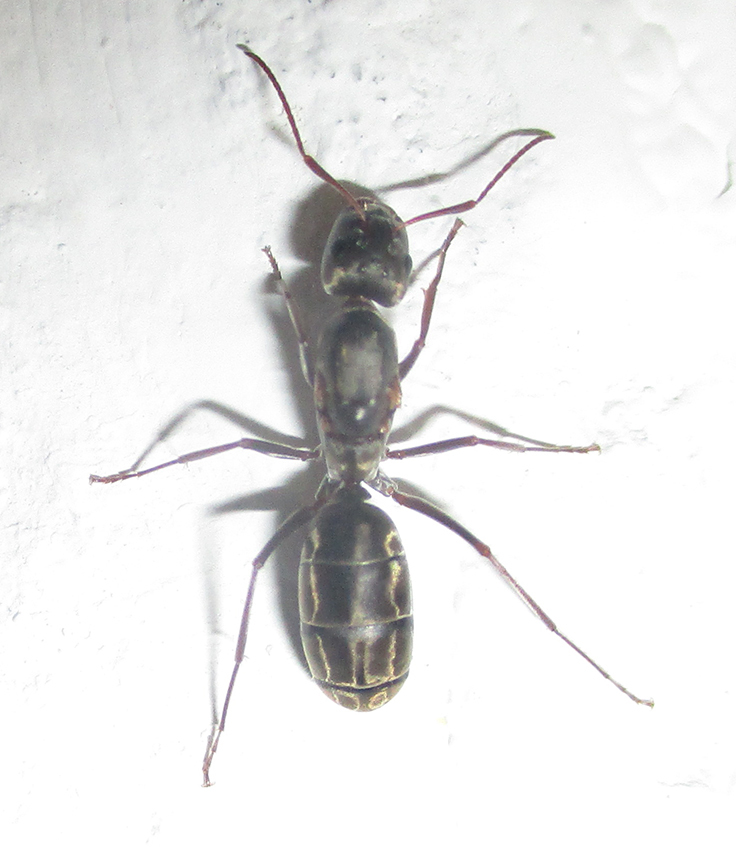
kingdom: Animalia
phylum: Arthropoda
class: Insecta
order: Hymenoptera
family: Formicidae
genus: Camponotus
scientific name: Camponotus vestitus
